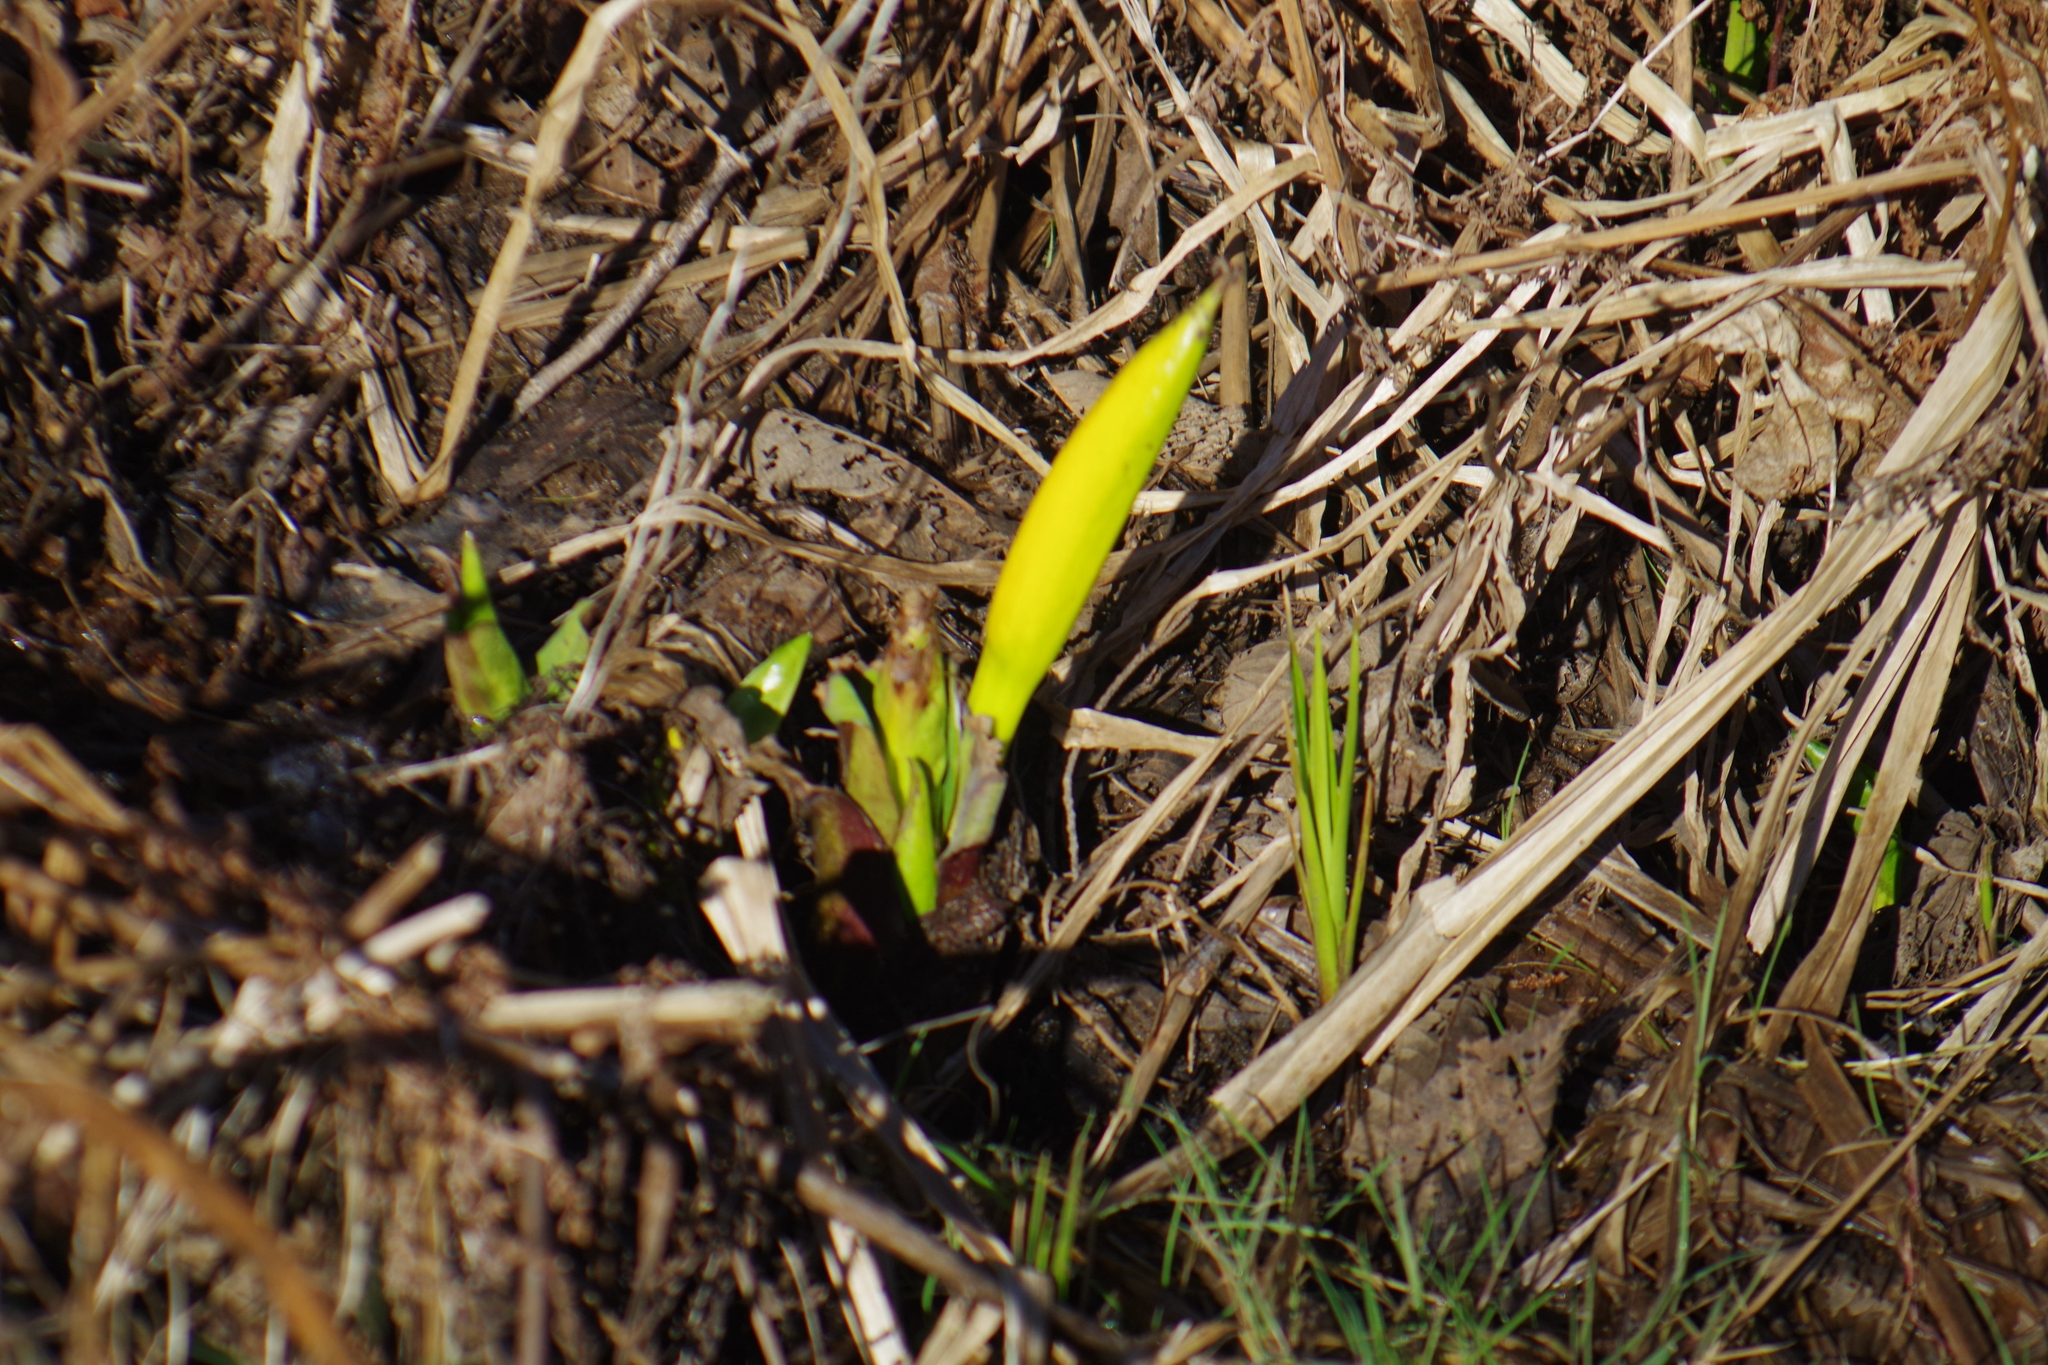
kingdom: Plantae
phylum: Tracheophyta
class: Liliopsida
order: Alismatales
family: Araceae
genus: Lysichiton
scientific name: Lysichiton americanus
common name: American skunk cabbage
